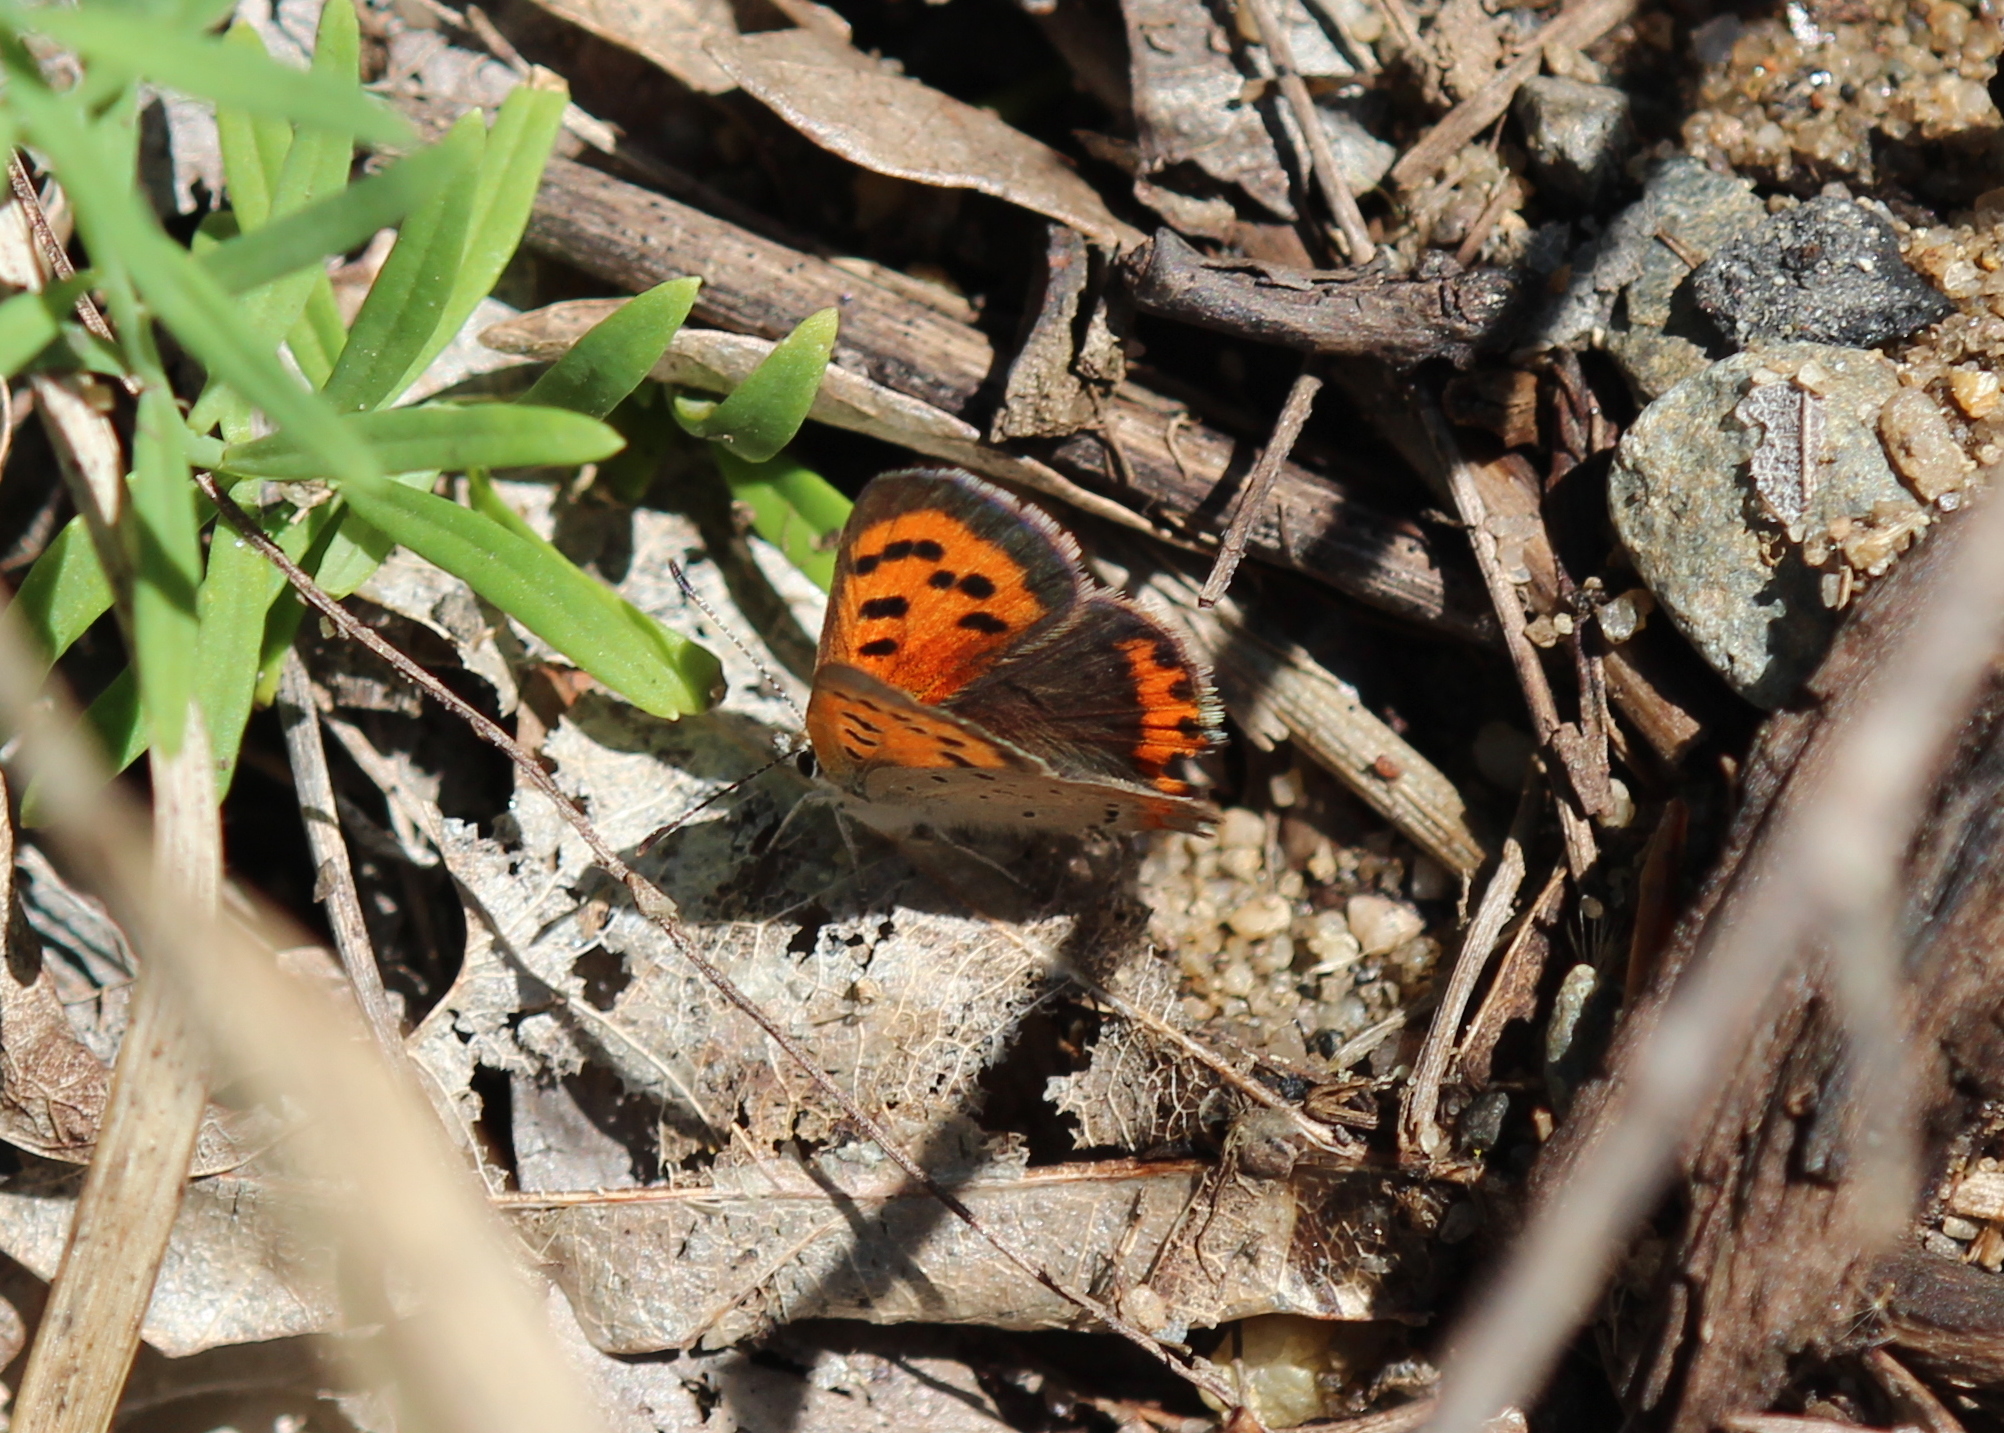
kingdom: Animalia
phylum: Arthropoda
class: Insecta
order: Lepidoptera
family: Lycaenidae
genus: Lycaena
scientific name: Lycaena hypophlaeas
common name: American copper
